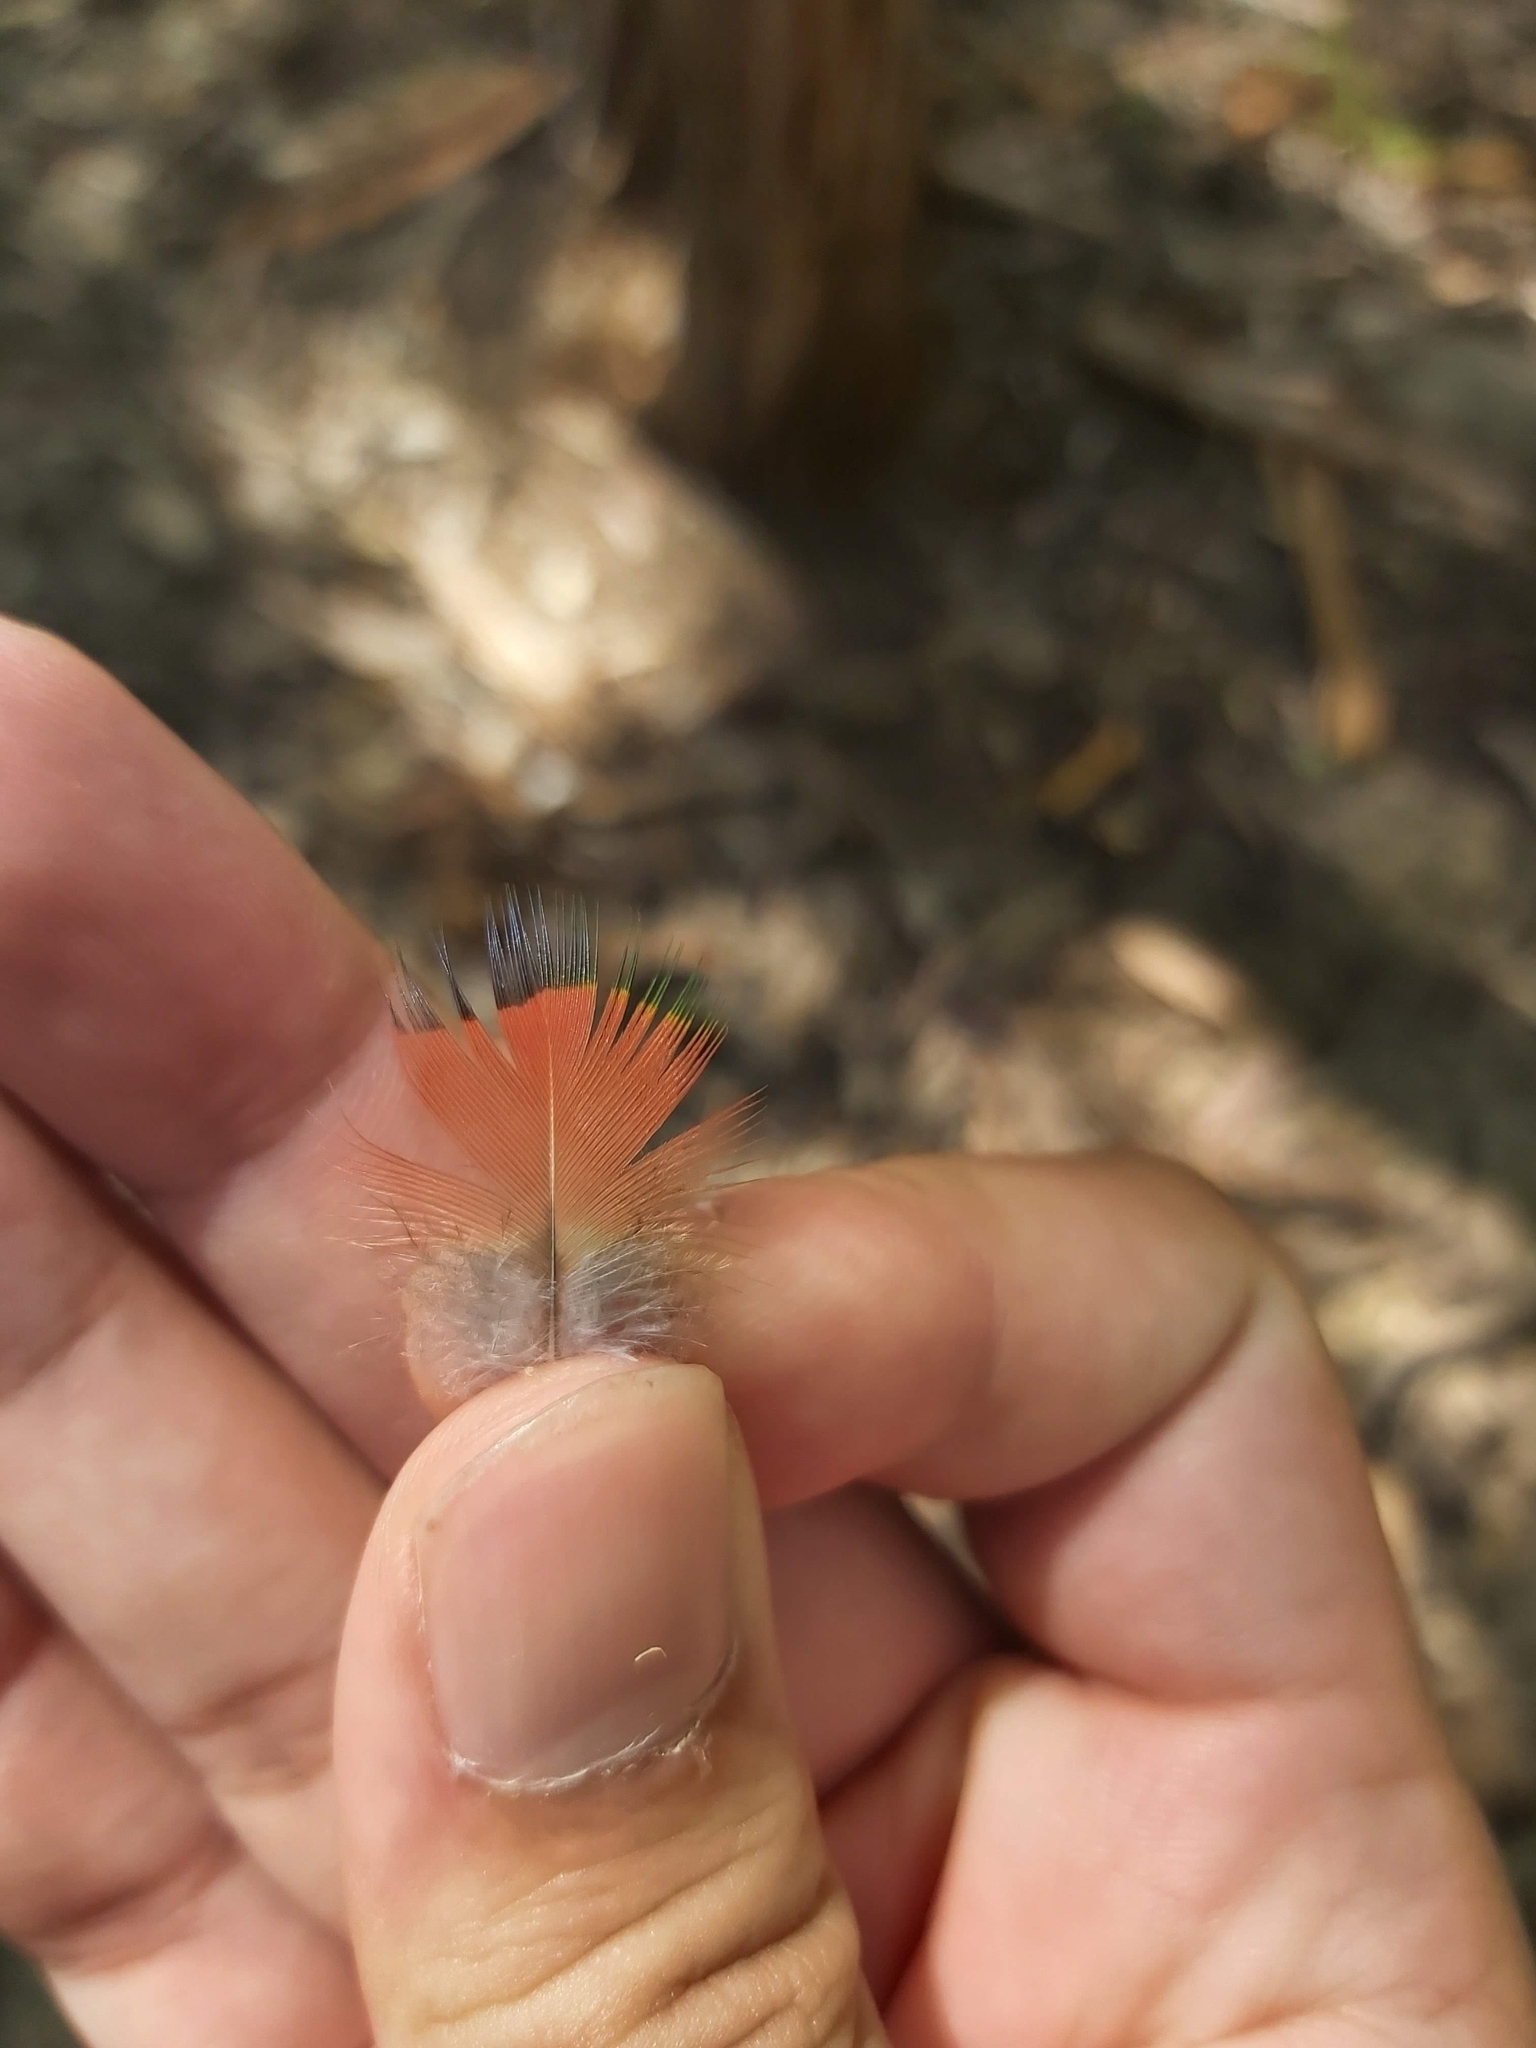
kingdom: Animalia
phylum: Chordata
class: Aves
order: Psittaciformes
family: Psittacidae
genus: Trichoglossus
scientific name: Trichoglossus haematodus
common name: Coconut lorikeet
